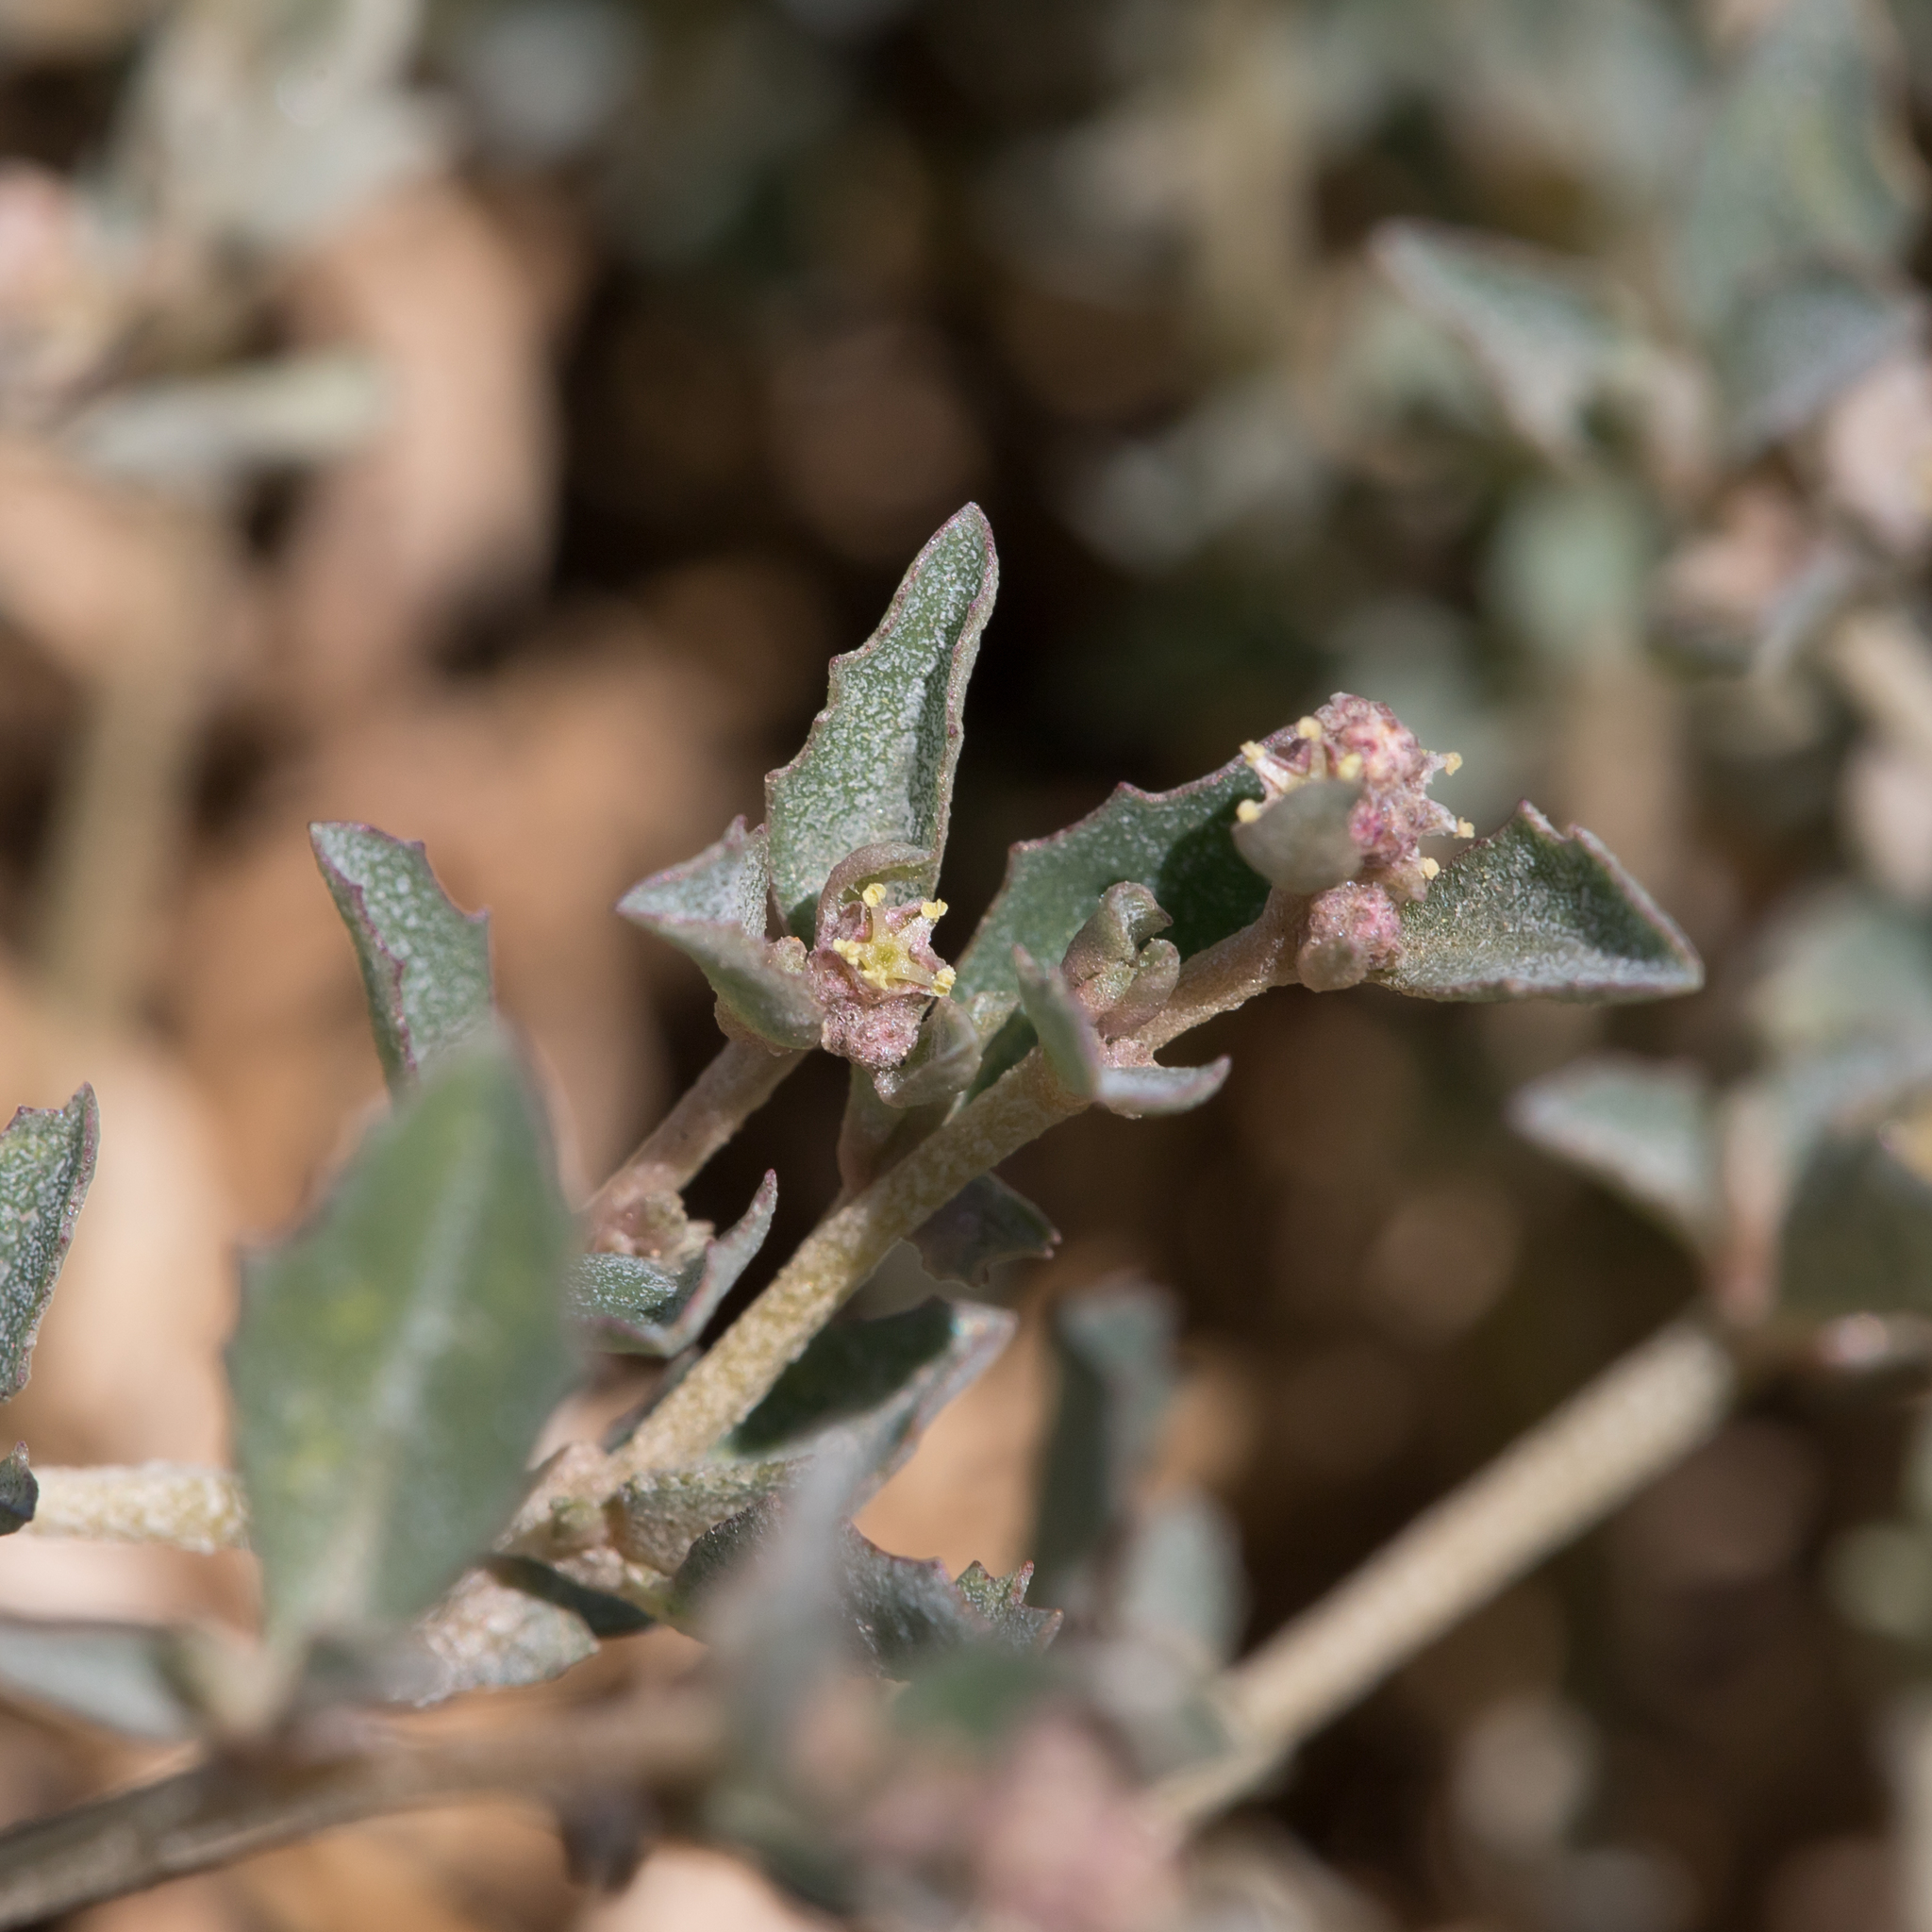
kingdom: Plantae
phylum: Tracheophyta
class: Magnoliopsida
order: Caryophyllales
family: Amaranthaceae
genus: Atriplex
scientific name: Atriplex semibaccata
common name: Australian saltbush
